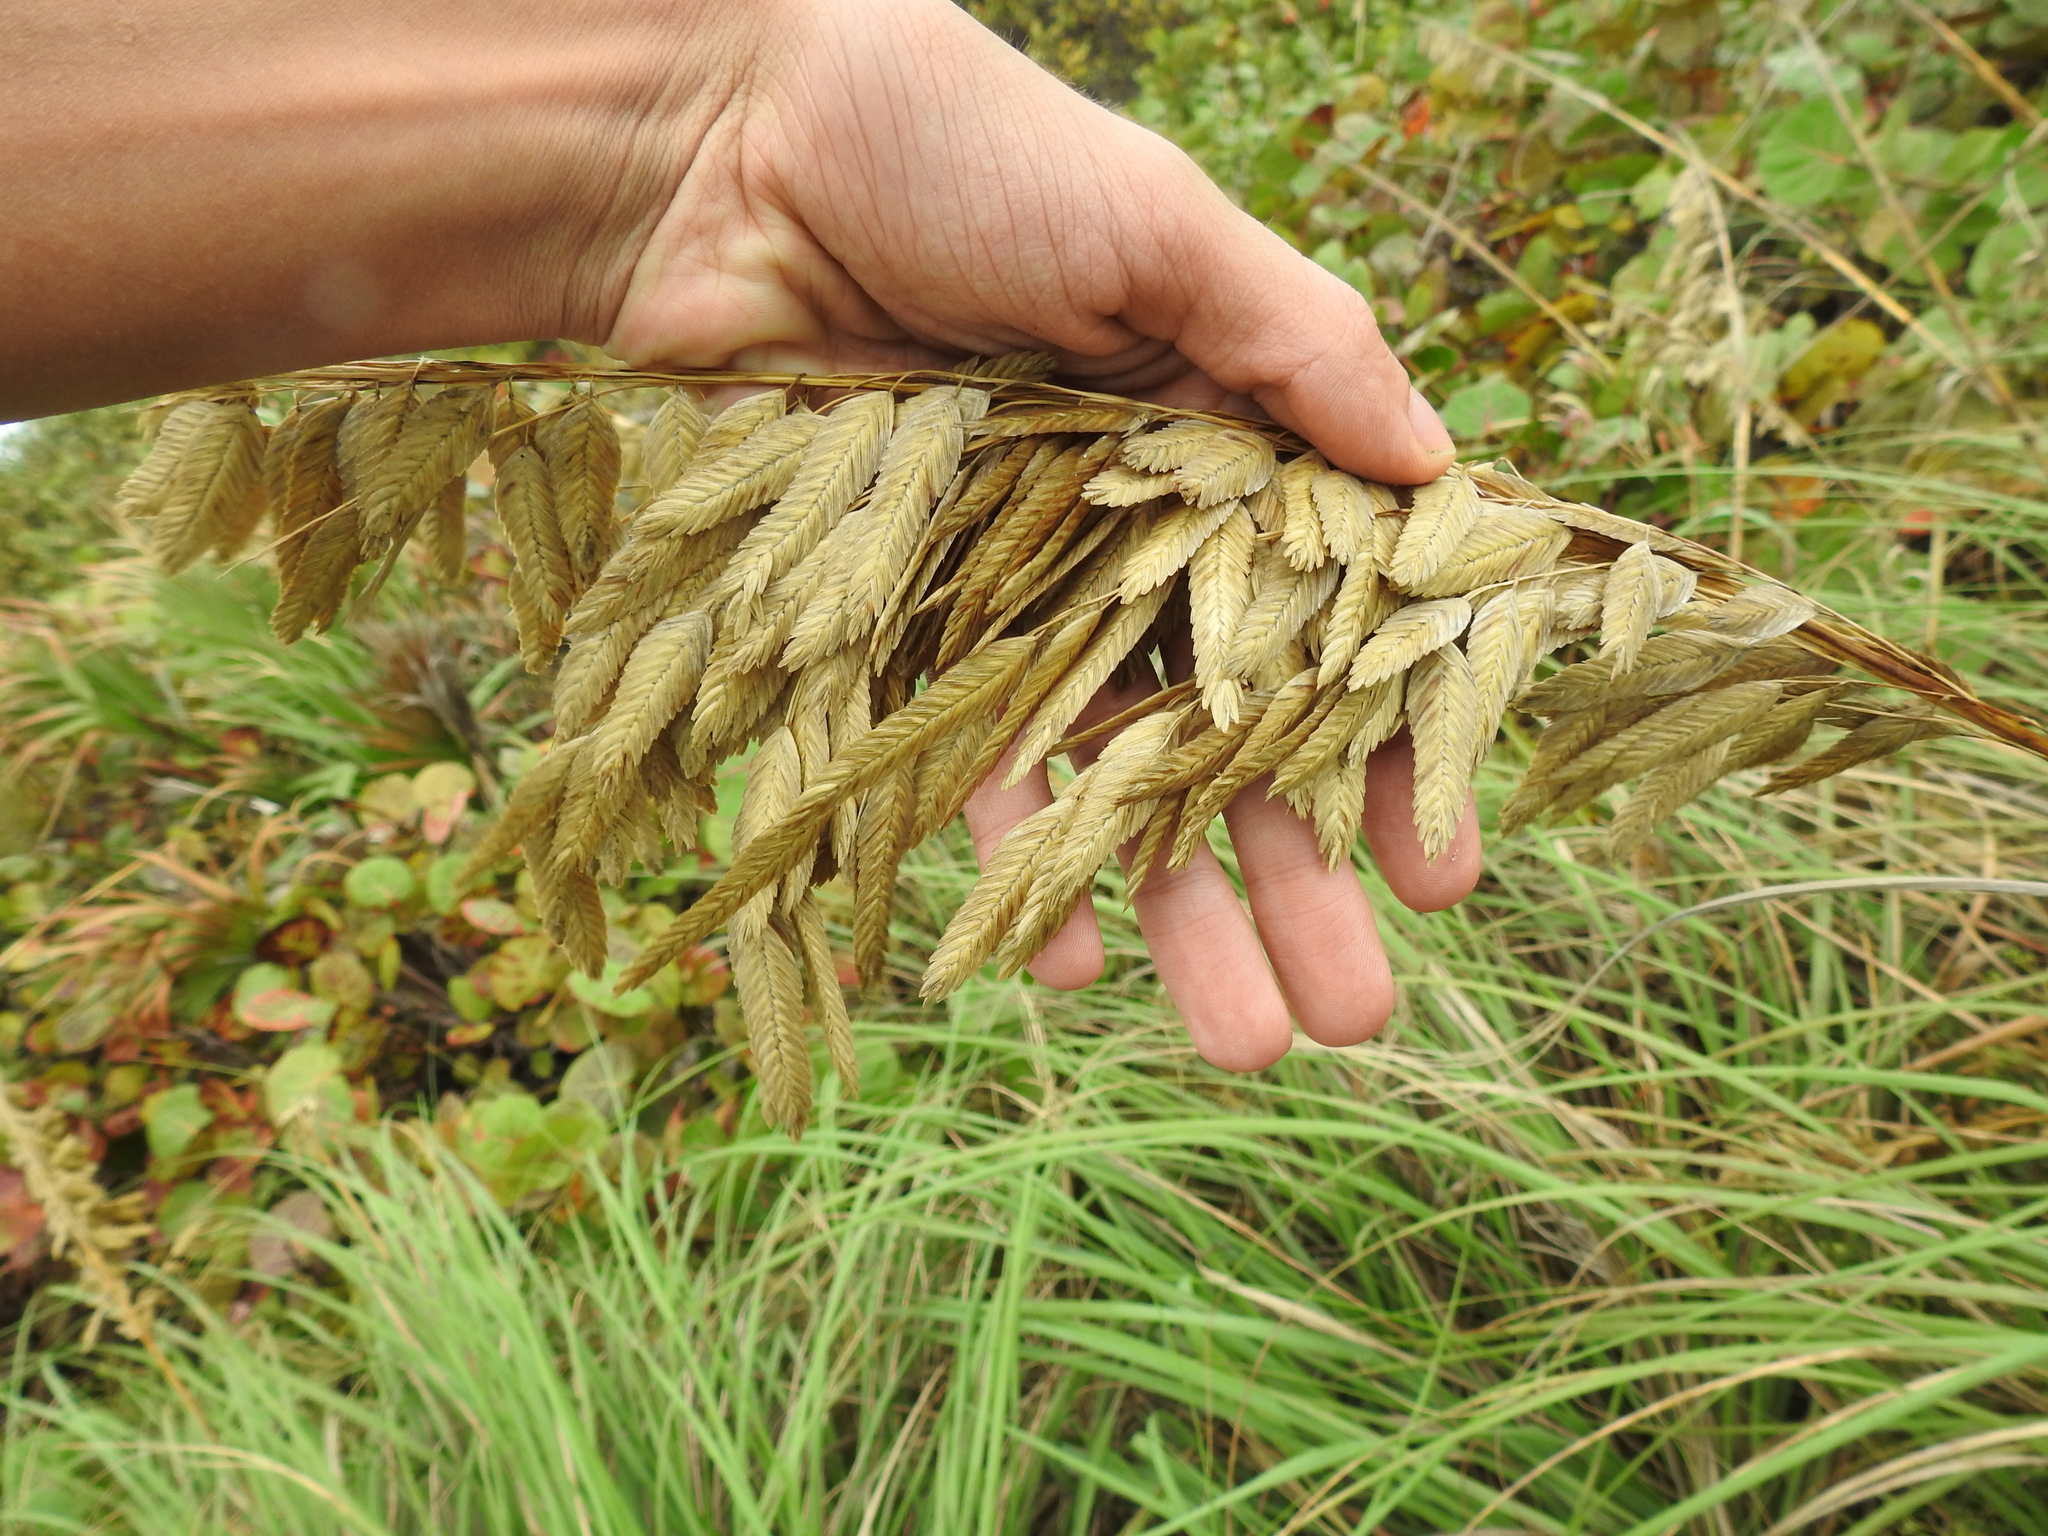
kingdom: Plantae
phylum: Tracheophyta
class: Liliopsida
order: Poales
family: Poaceae
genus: Uniola
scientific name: Uniola paniculata
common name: Seaside-oats
